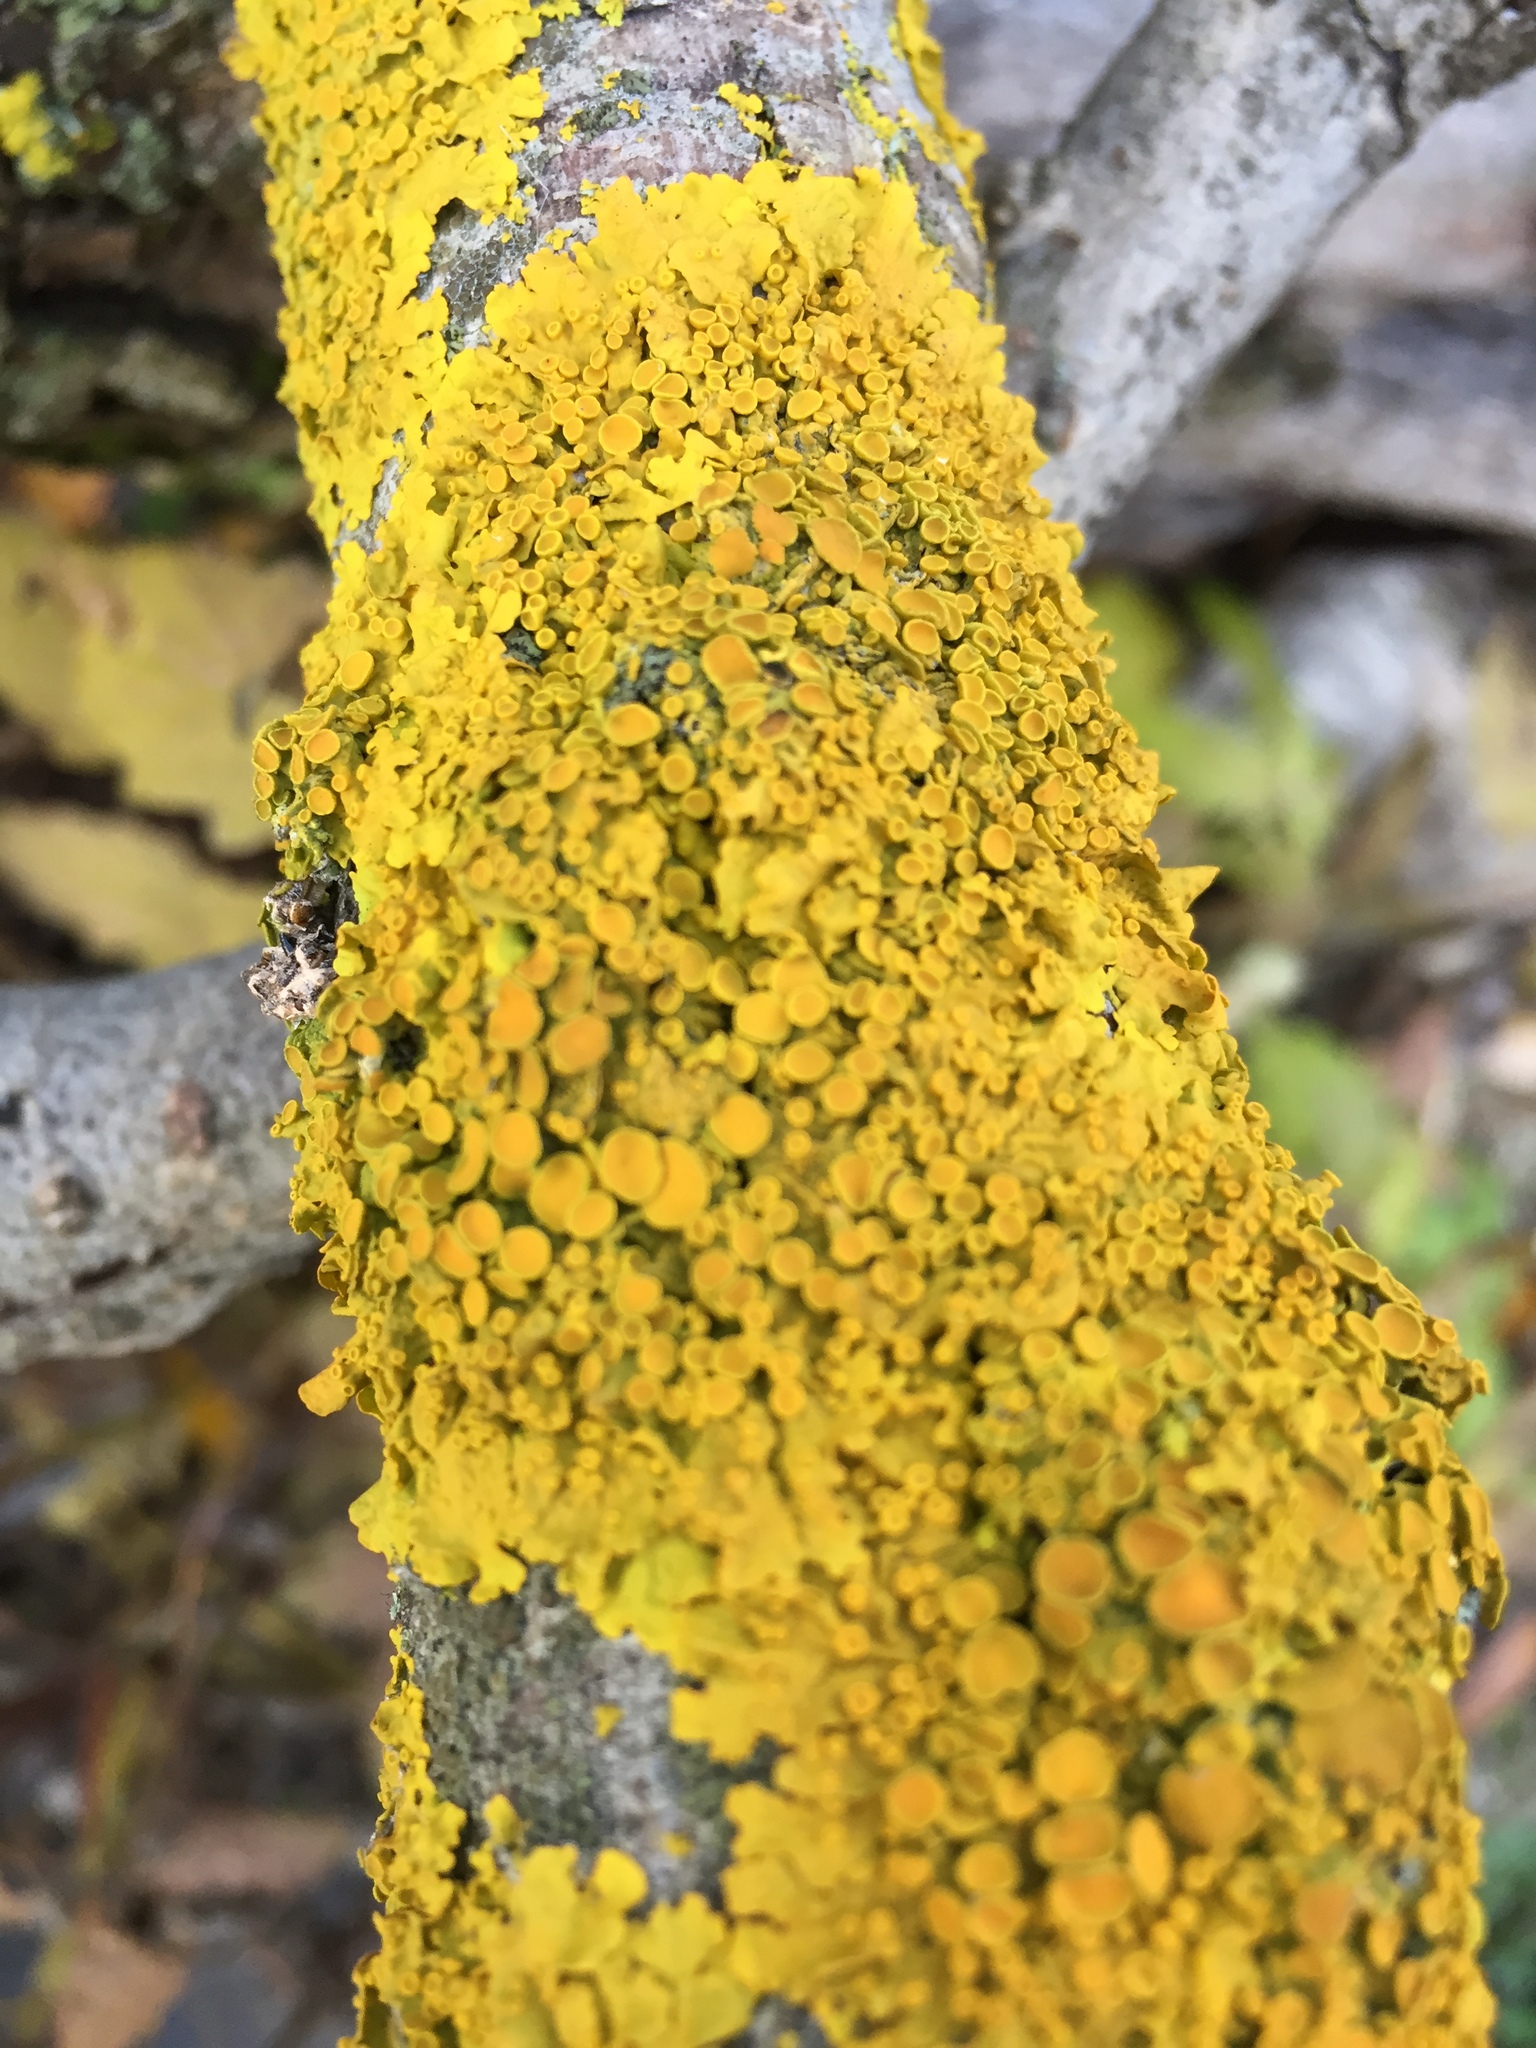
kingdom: Fungi
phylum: Ascomycota
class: Lecanoromycetes
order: Teloschistales
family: Teloschistaceae
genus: Xanthoria
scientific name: Xanthoria parietina
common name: Common orange lichen
